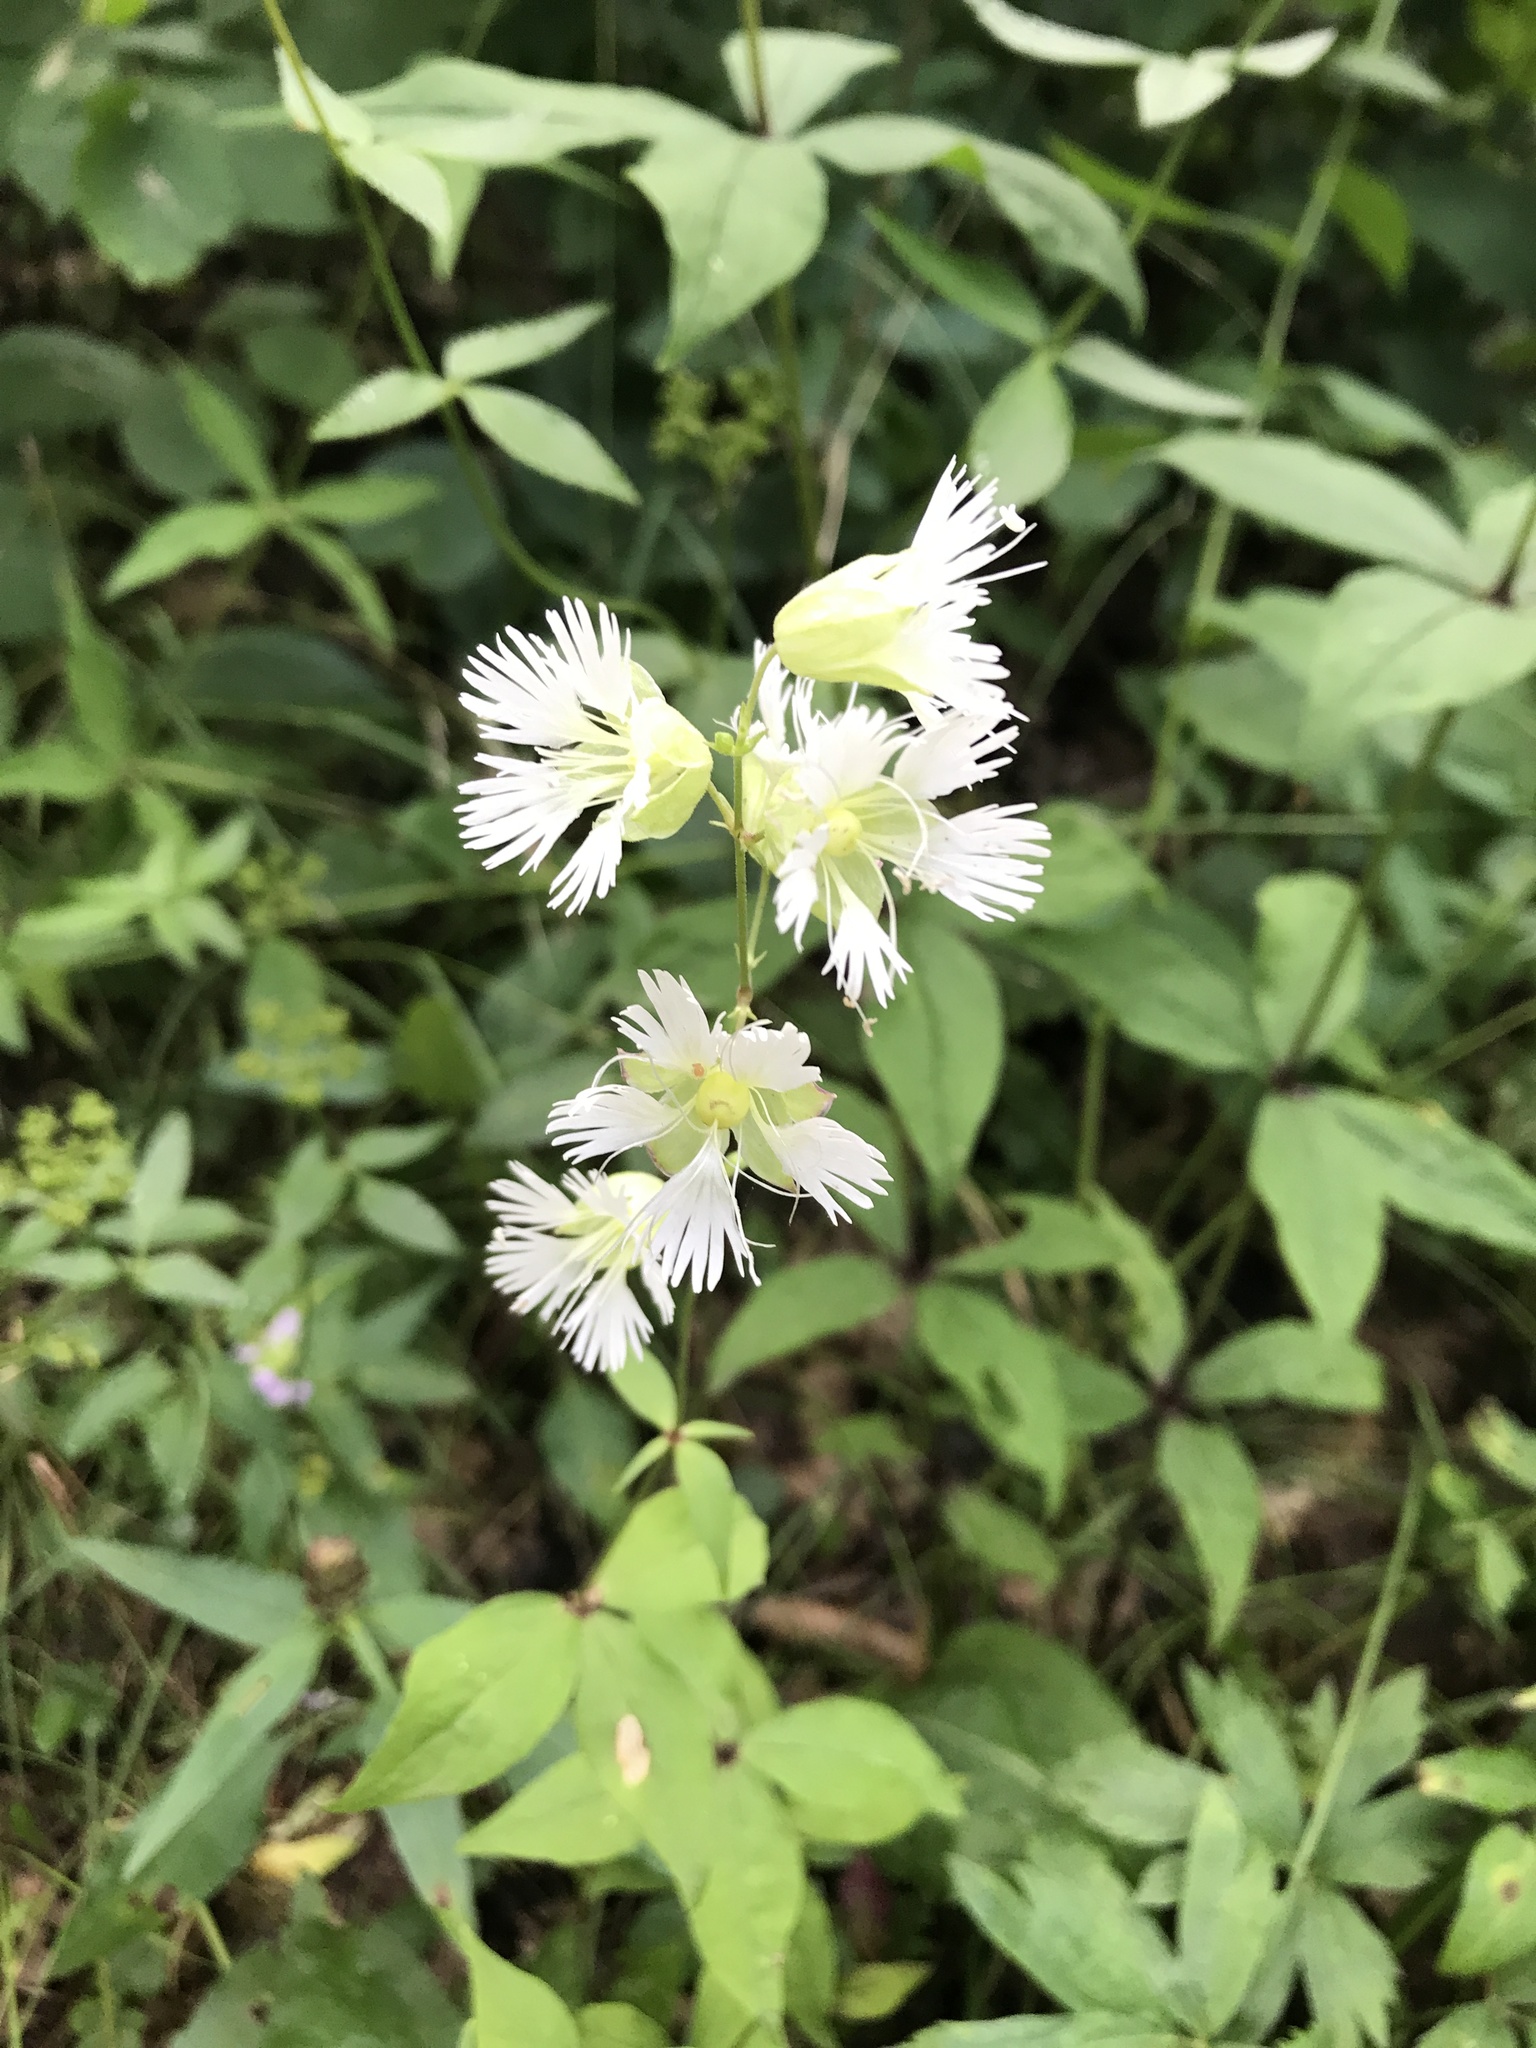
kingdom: Plantae
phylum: Tracheophyta
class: Magnoliopsida
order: Caryophyllales
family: Caryophyllaceae
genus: Silene
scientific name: Silene stellata
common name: Starry campion
